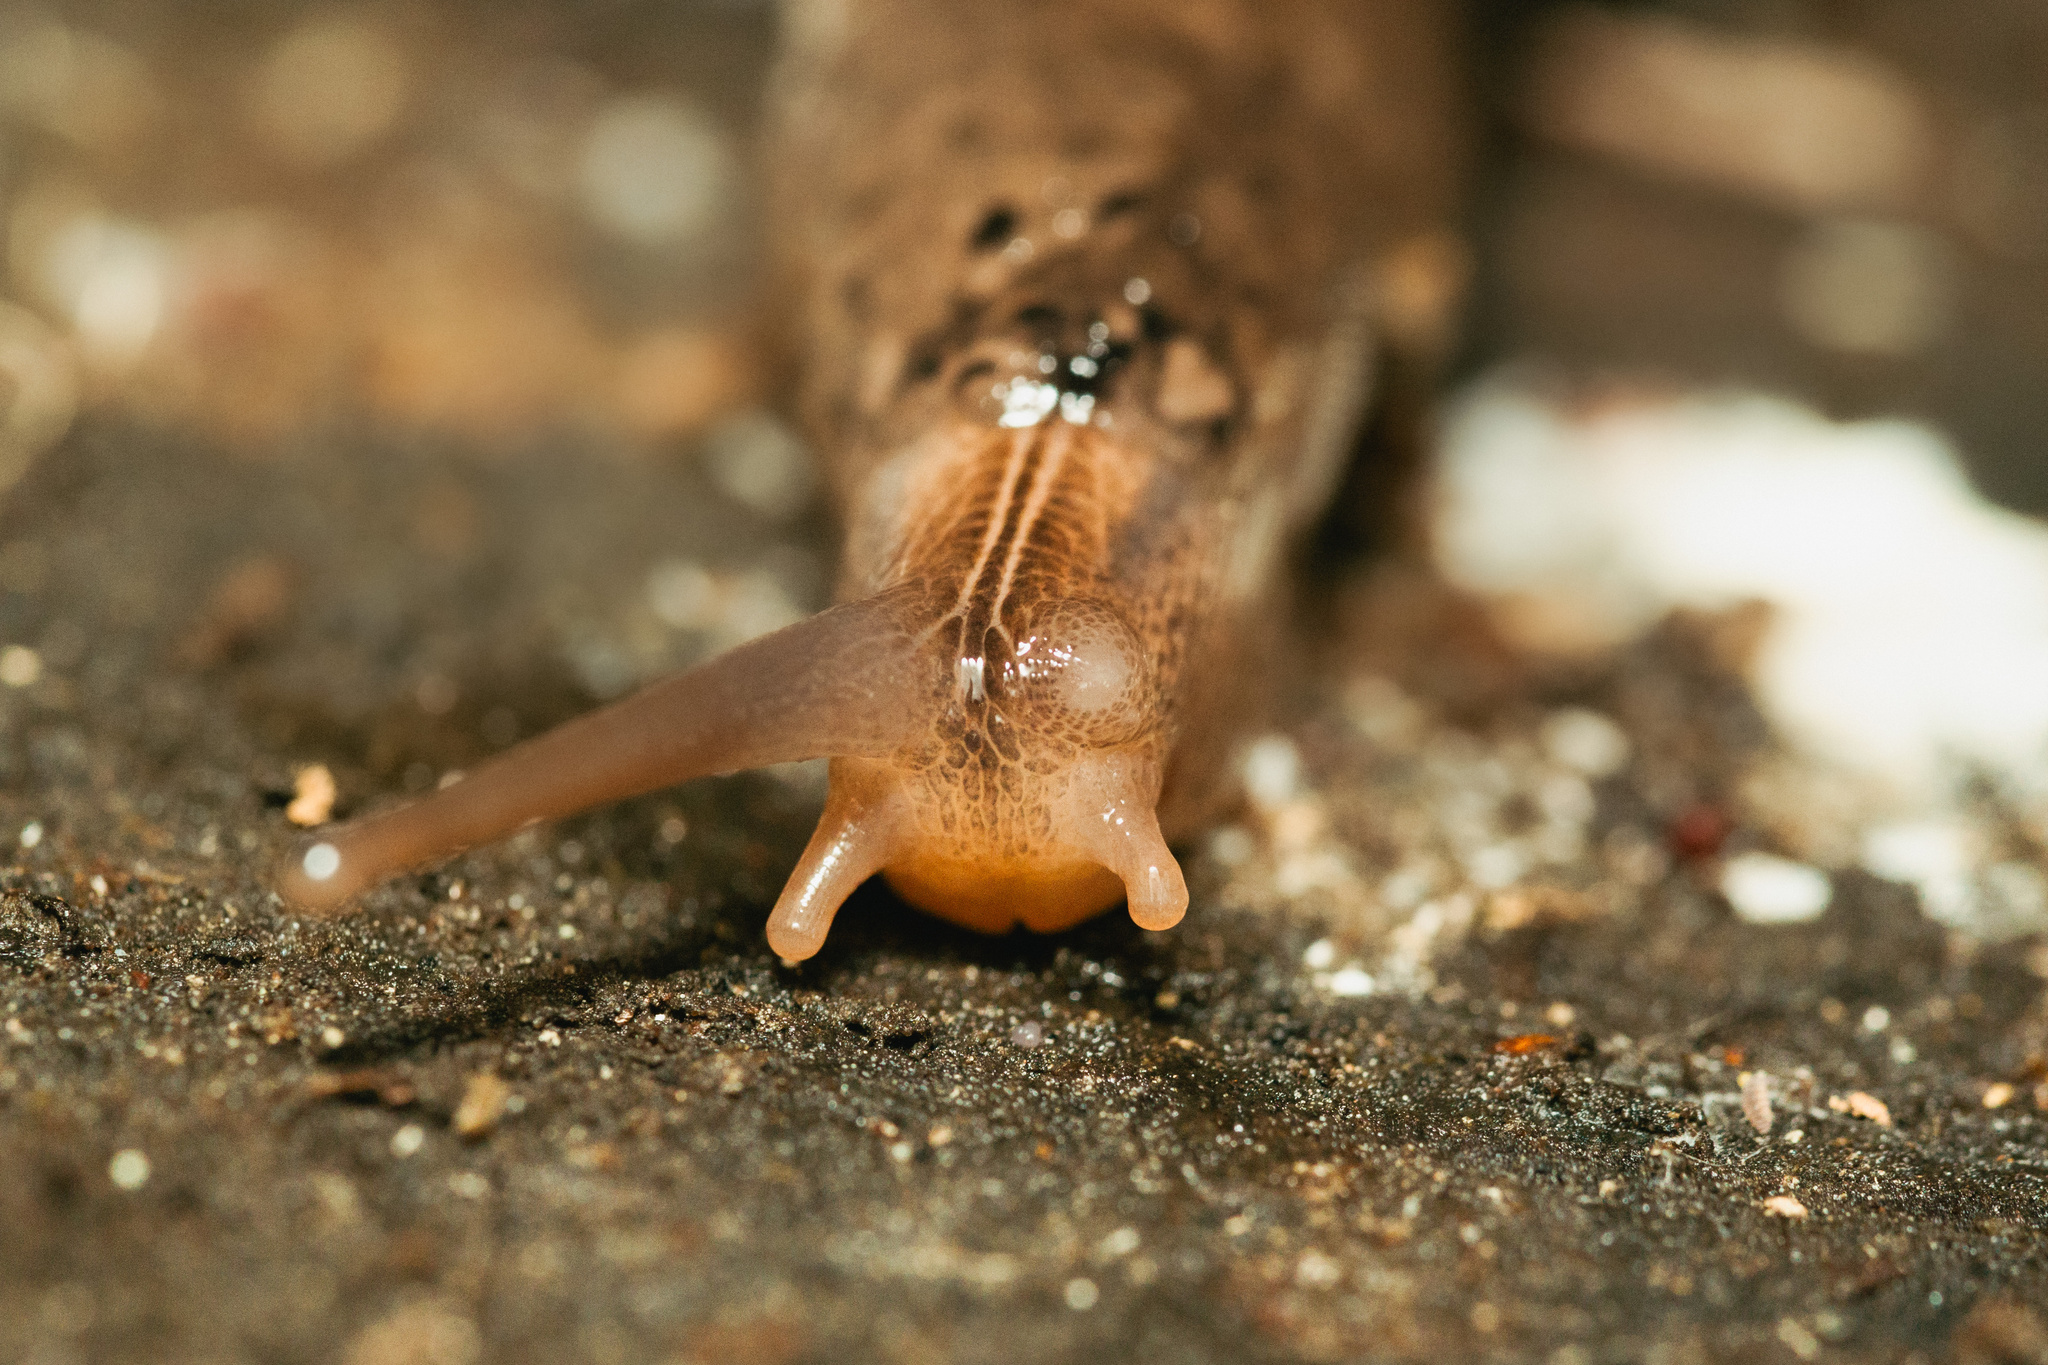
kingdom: Animalia
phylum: Mollusca
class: Gastropoda
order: Stylommatophora
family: Limacidae
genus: Limax
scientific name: Limax maximus
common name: Great grey slug
